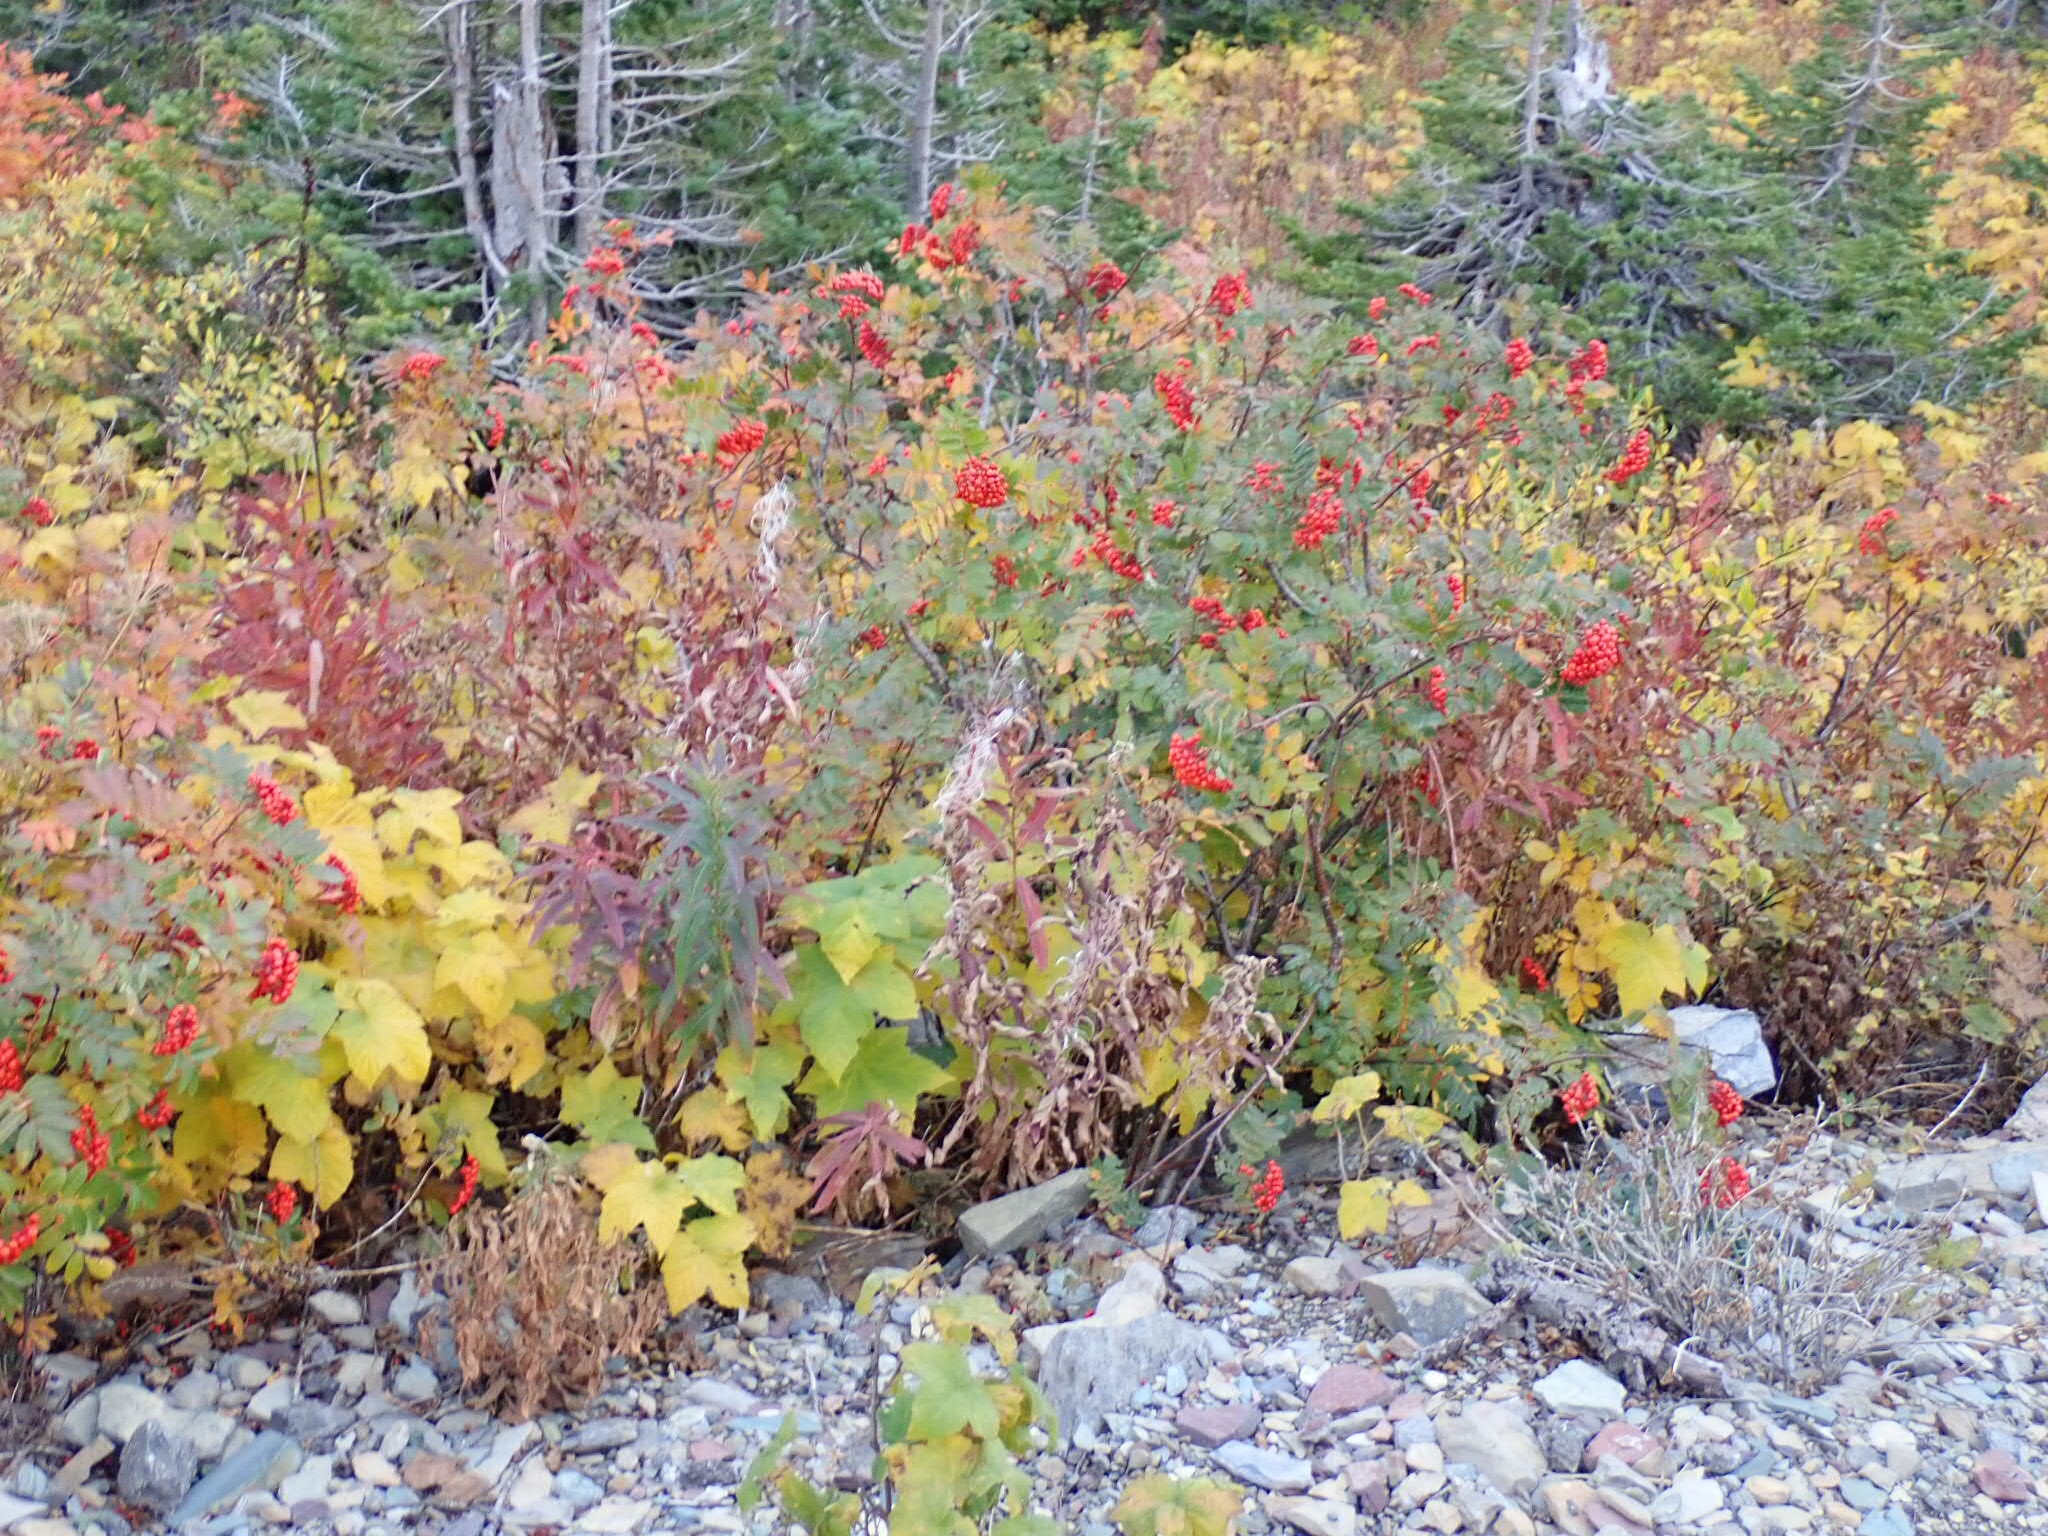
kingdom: Plantae
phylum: Tracheophyta
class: Magnoliopsida
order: Rosales
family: Rosaceae
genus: Sorbus
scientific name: Sorbus sitchensis
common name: Sitka mountain-ash
